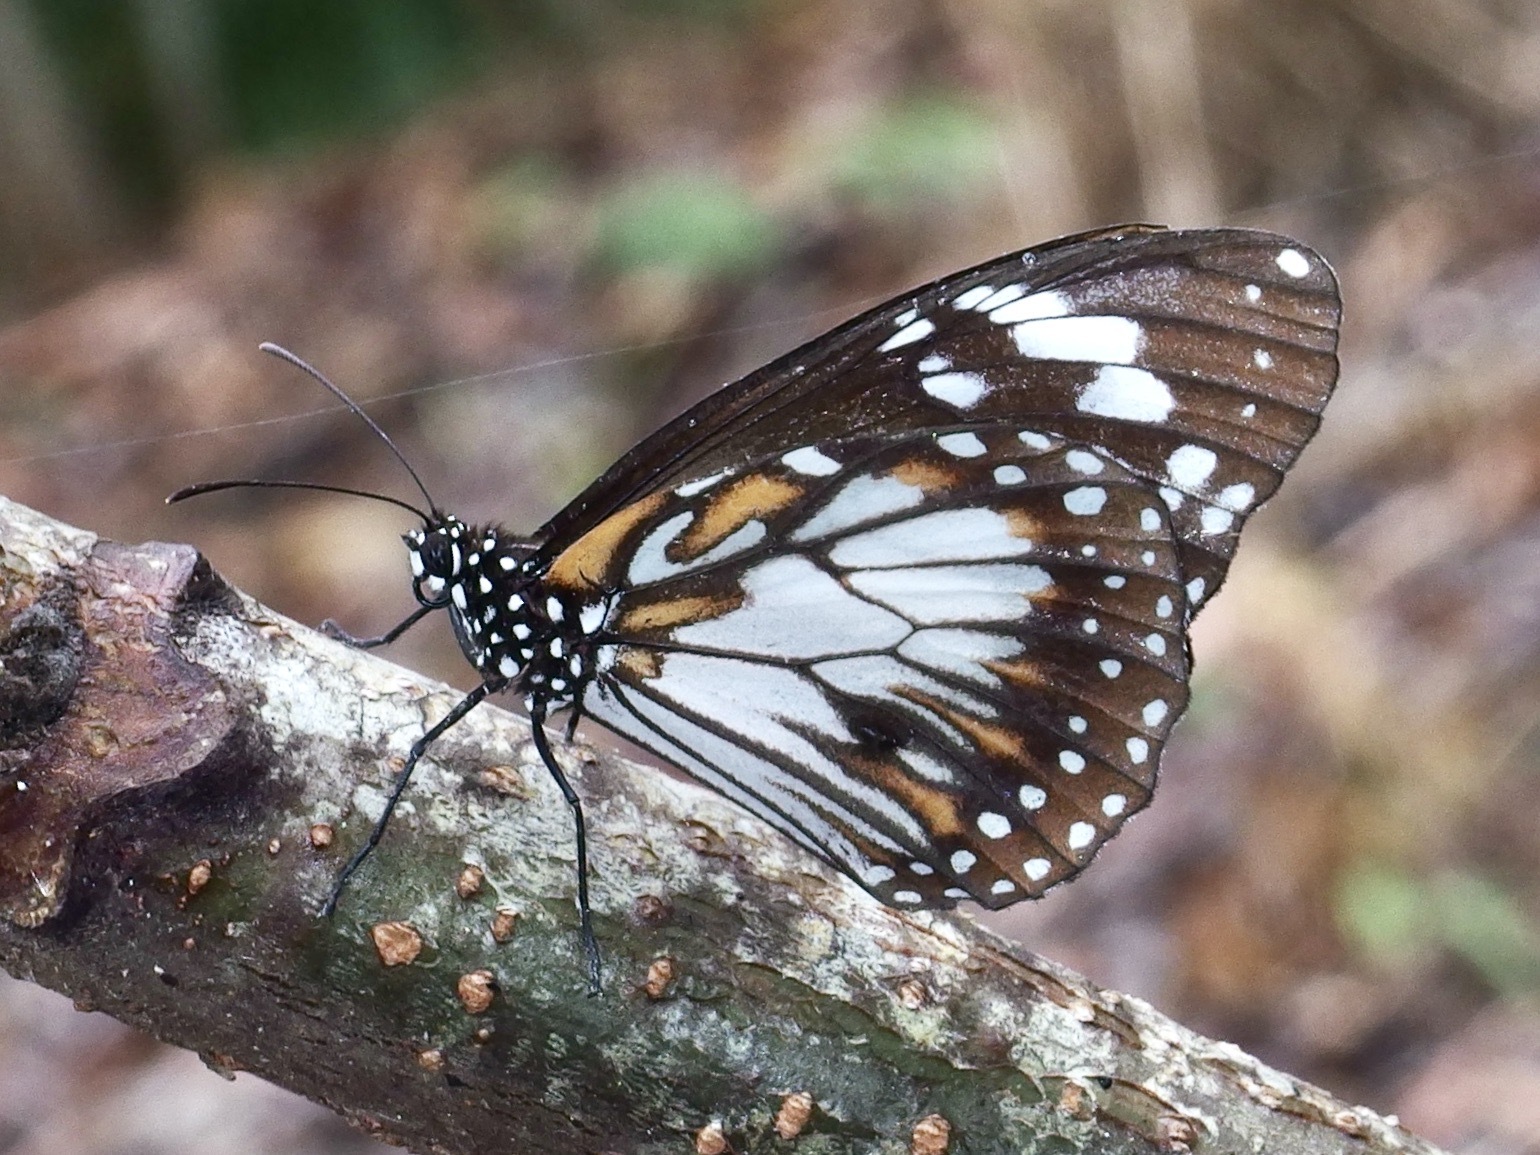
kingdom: Animalia
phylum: Arthropoda
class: Insecta
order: Lepidoptera
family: Nymphalidae
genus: Danaus
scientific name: Danaus affinis
